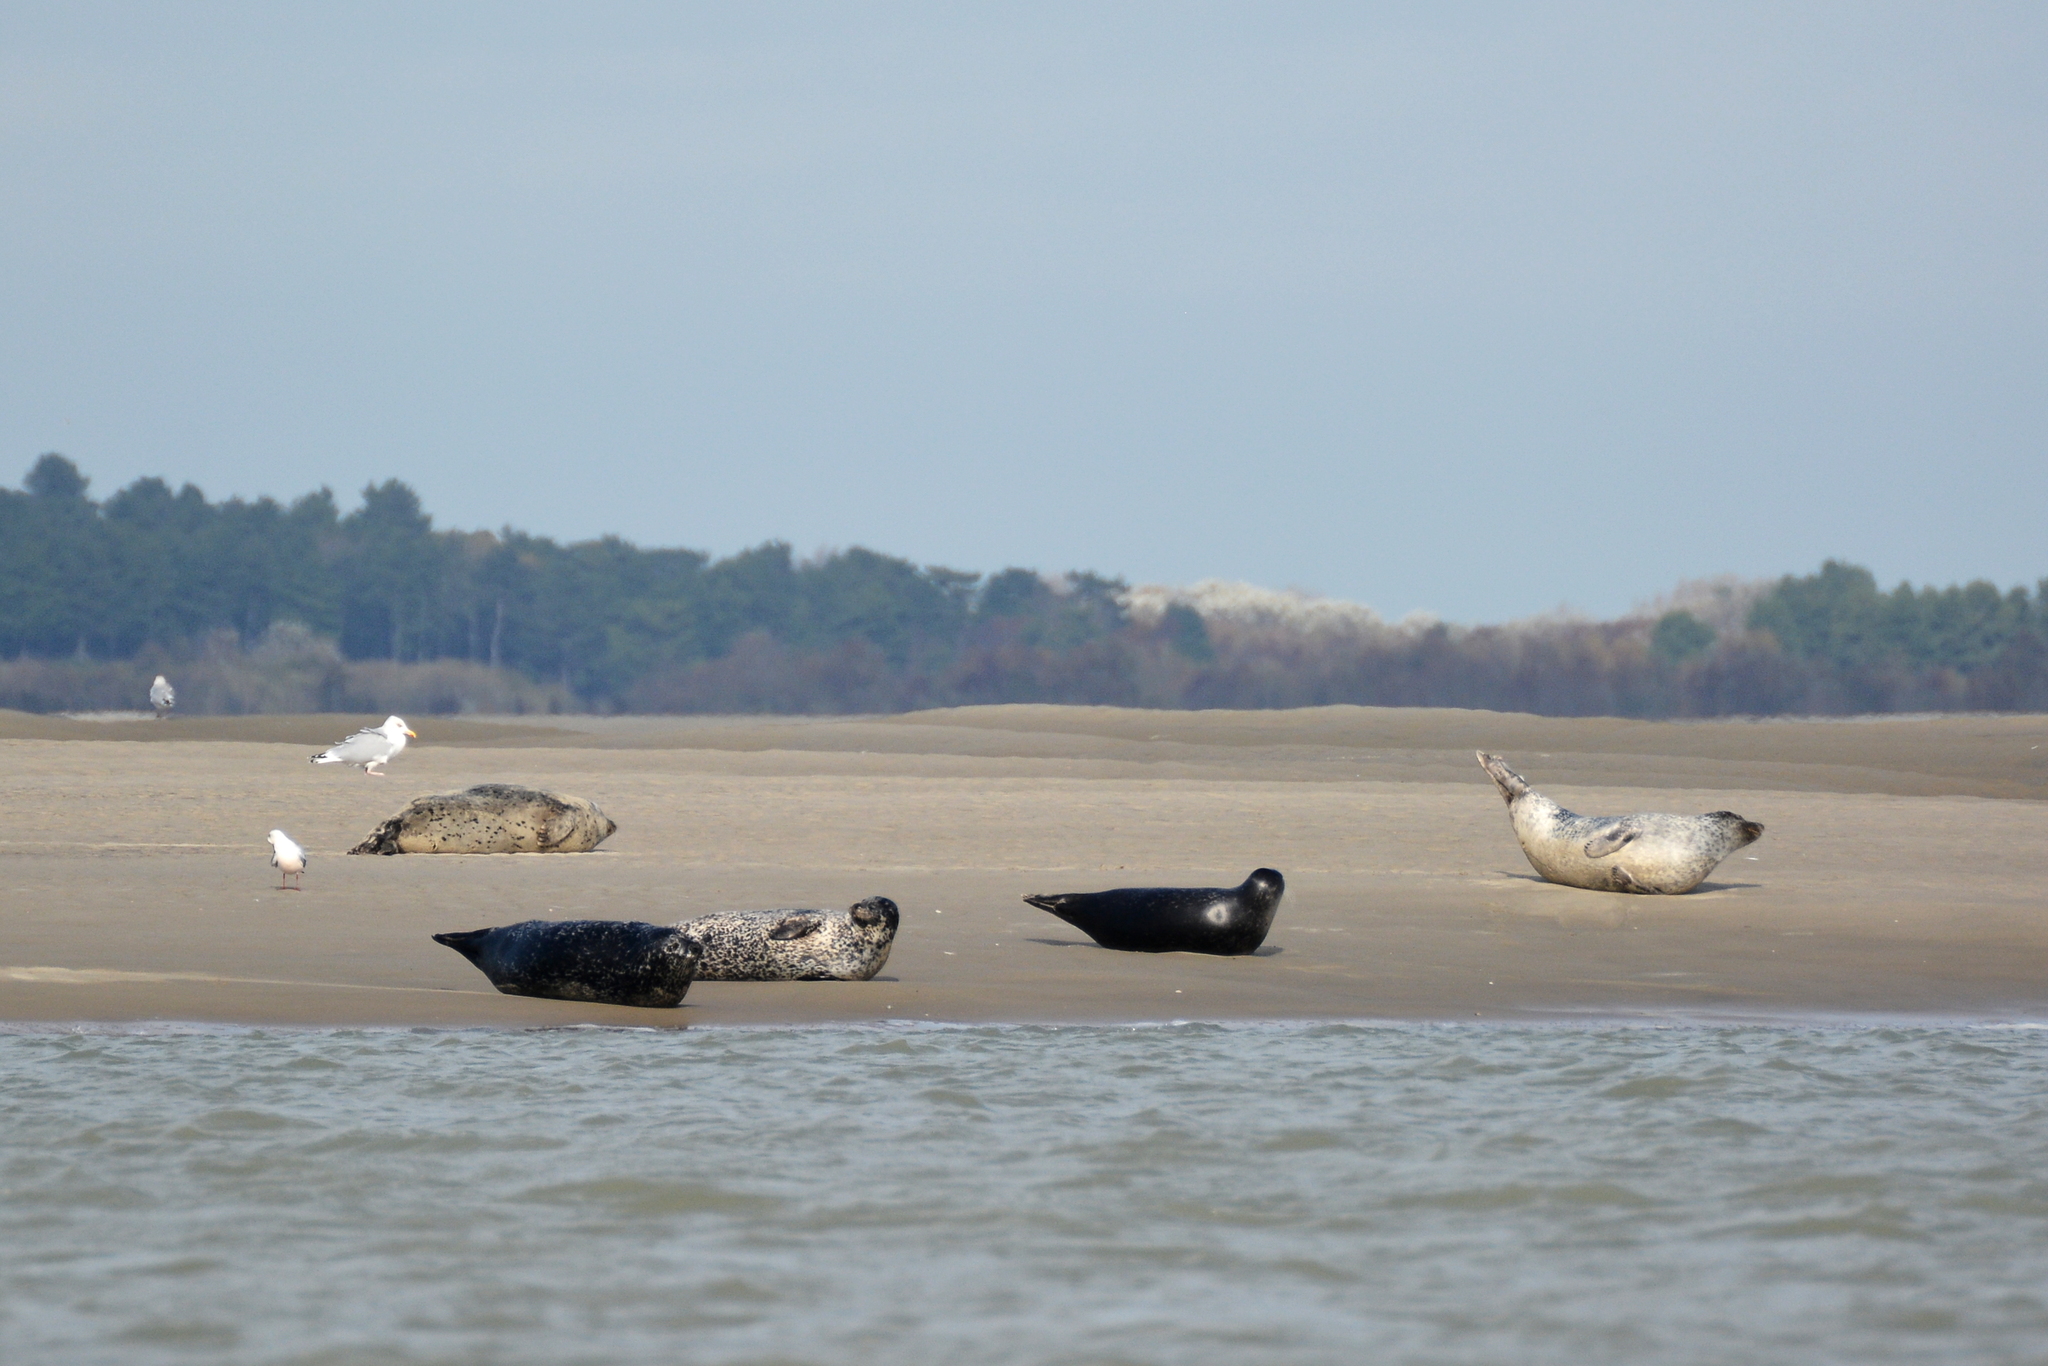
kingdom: Animalia
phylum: Chordata
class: Mammalia
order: Carnivora
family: Phocidae
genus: Phoca
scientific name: Phoca vitulina
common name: Harbor seal
